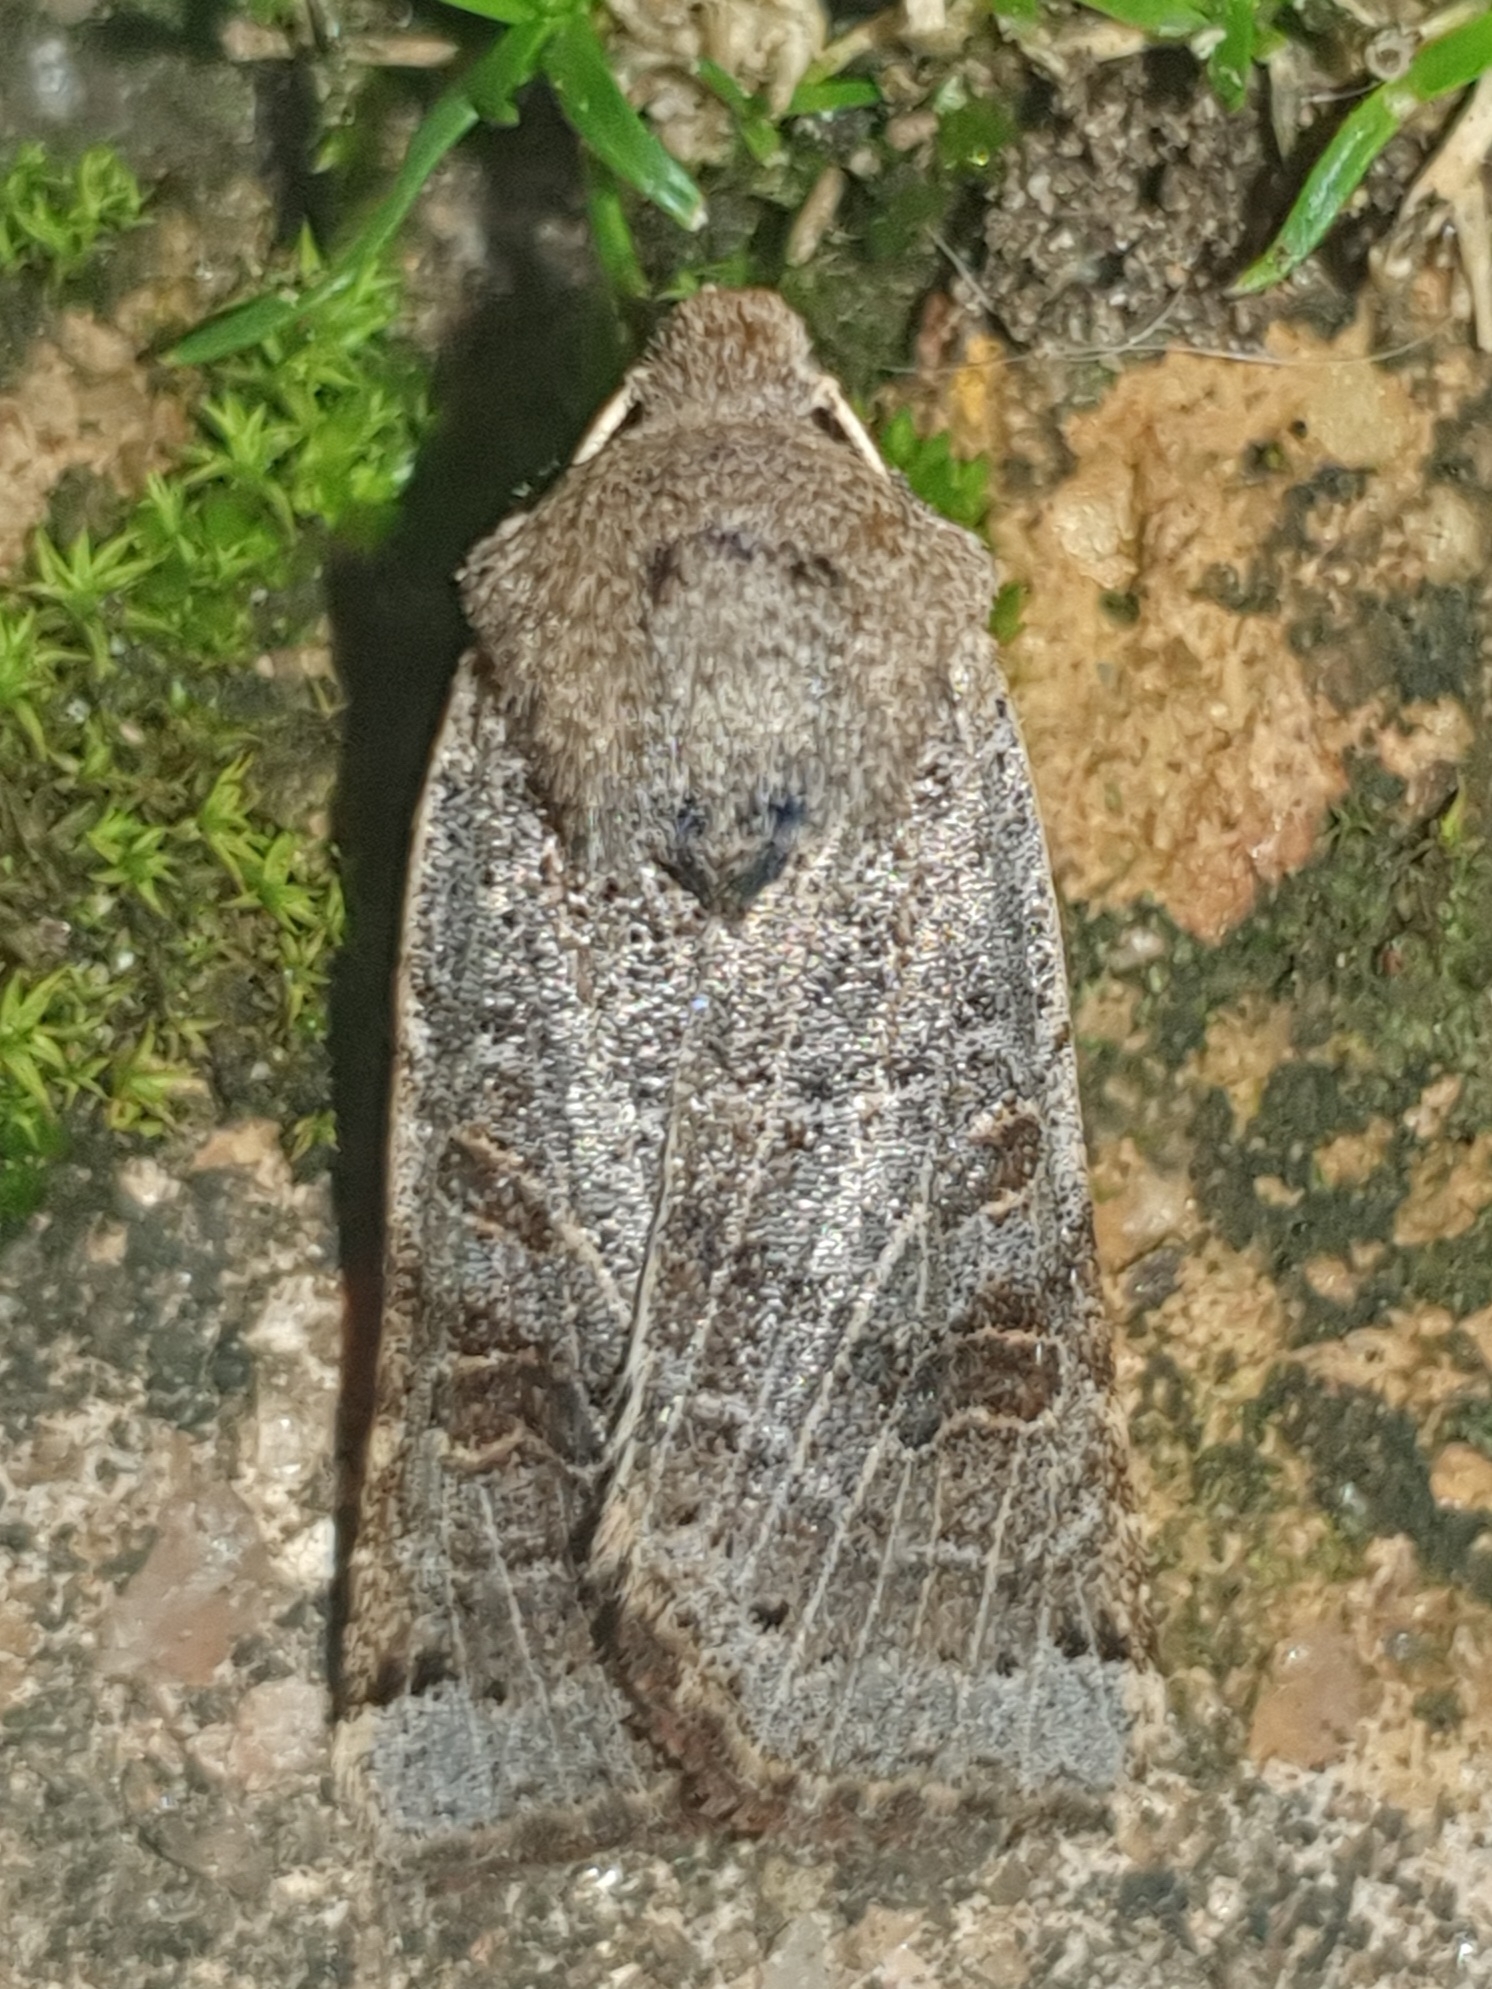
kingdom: Animalia
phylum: Arthropoda
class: Insecta
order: Lepidoptera
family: Noctuidae
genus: Agrochola
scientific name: Agrochola lunosa
